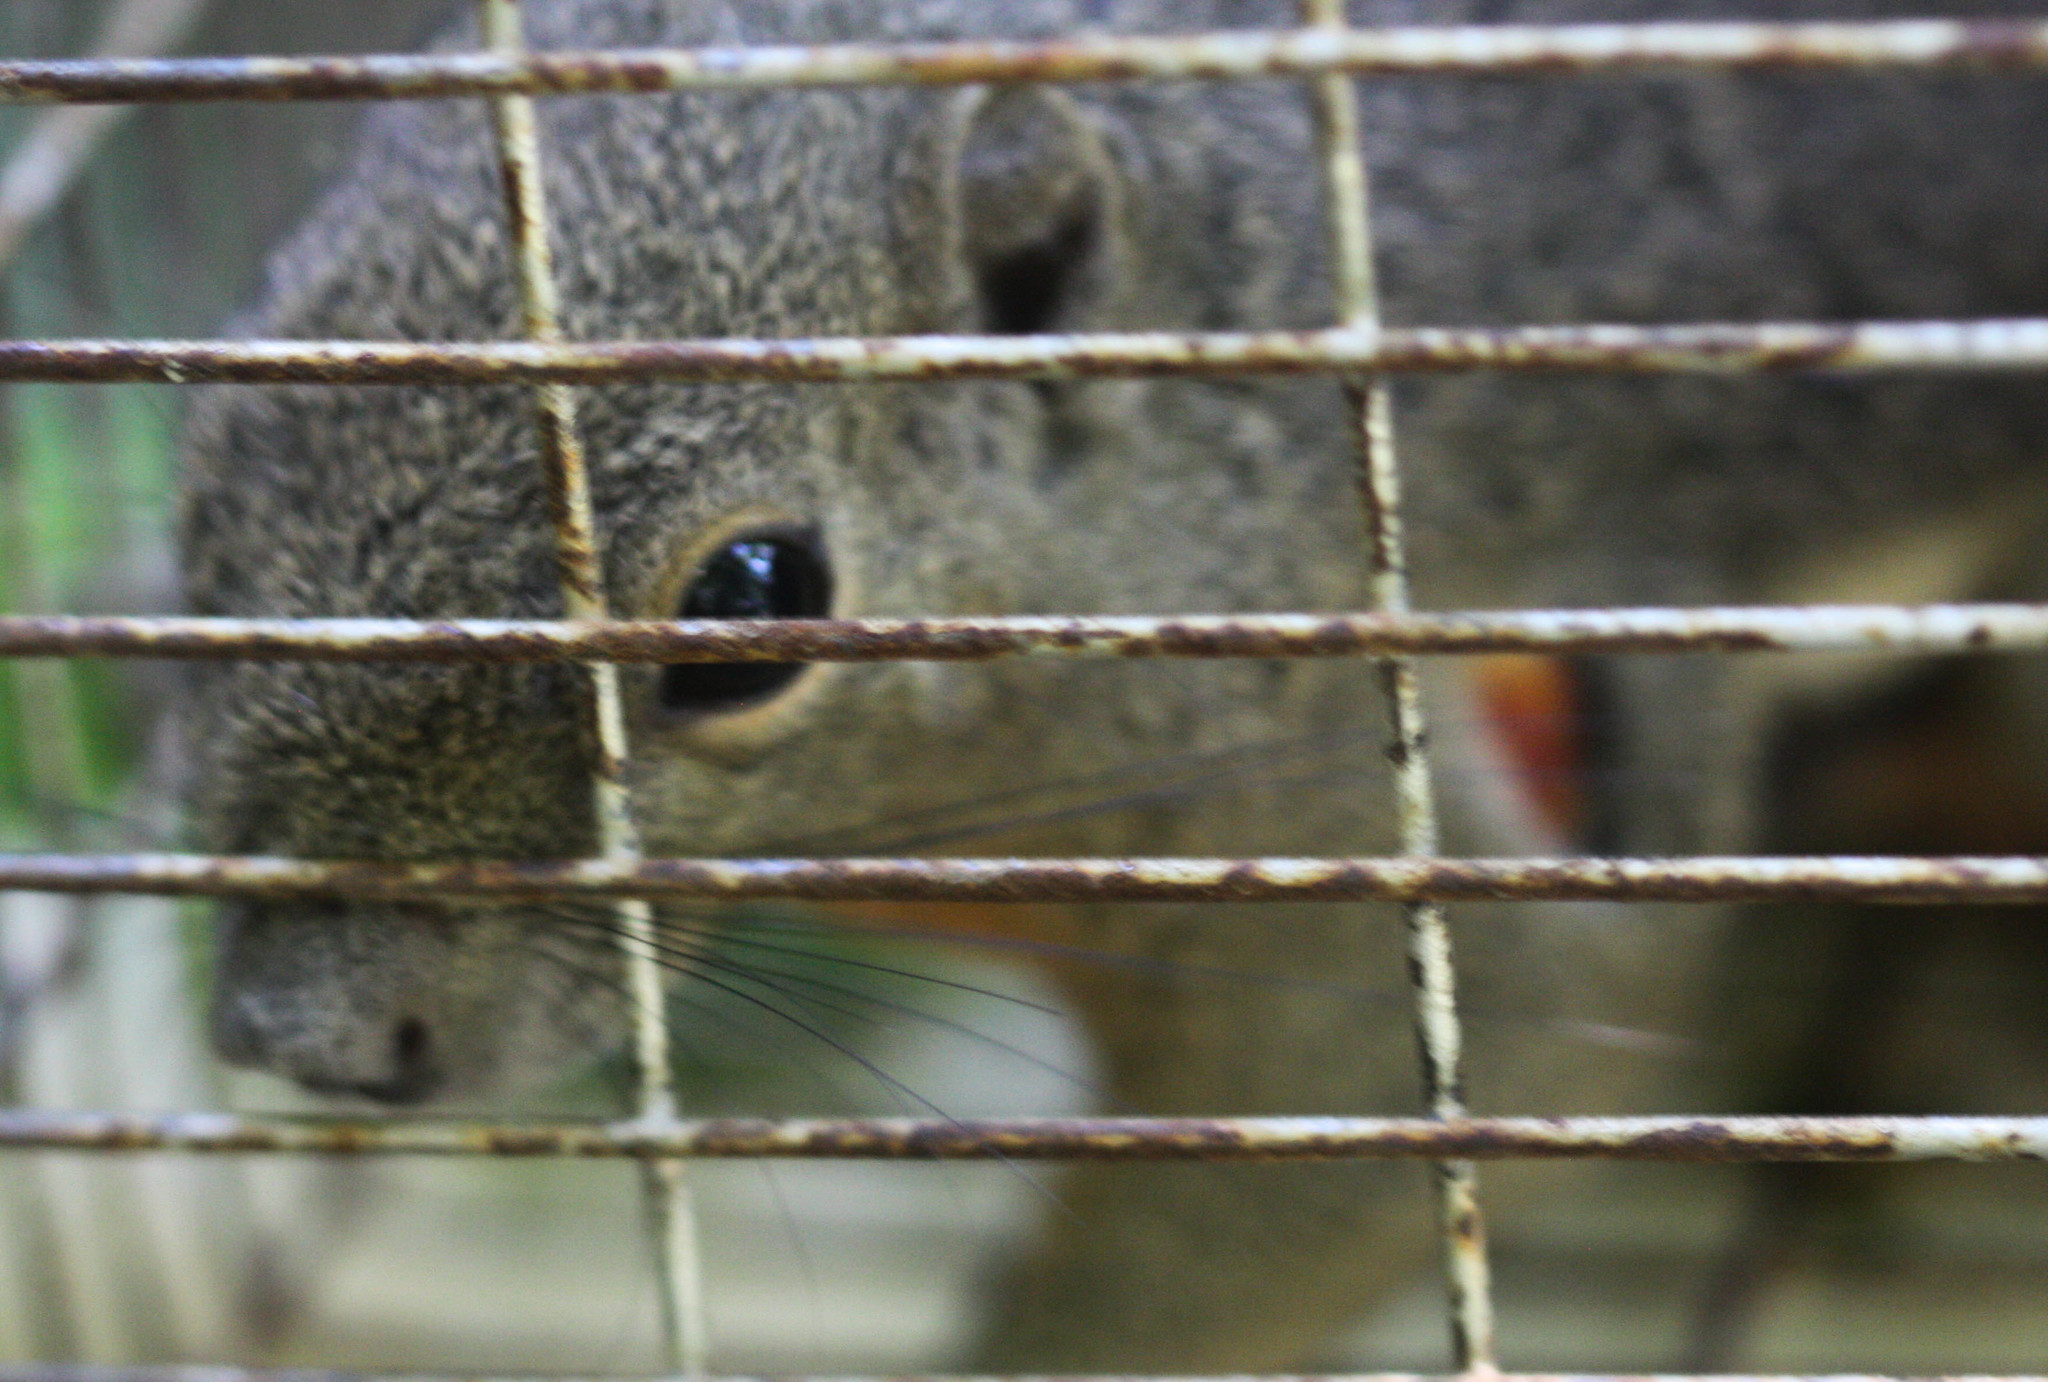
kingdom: Animalia
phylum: Chordata
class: Mammalia
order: Rodentia
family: Sciuridae
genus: Callosciurus
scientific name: Callosciurus notatus
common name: Plantain squirrel
